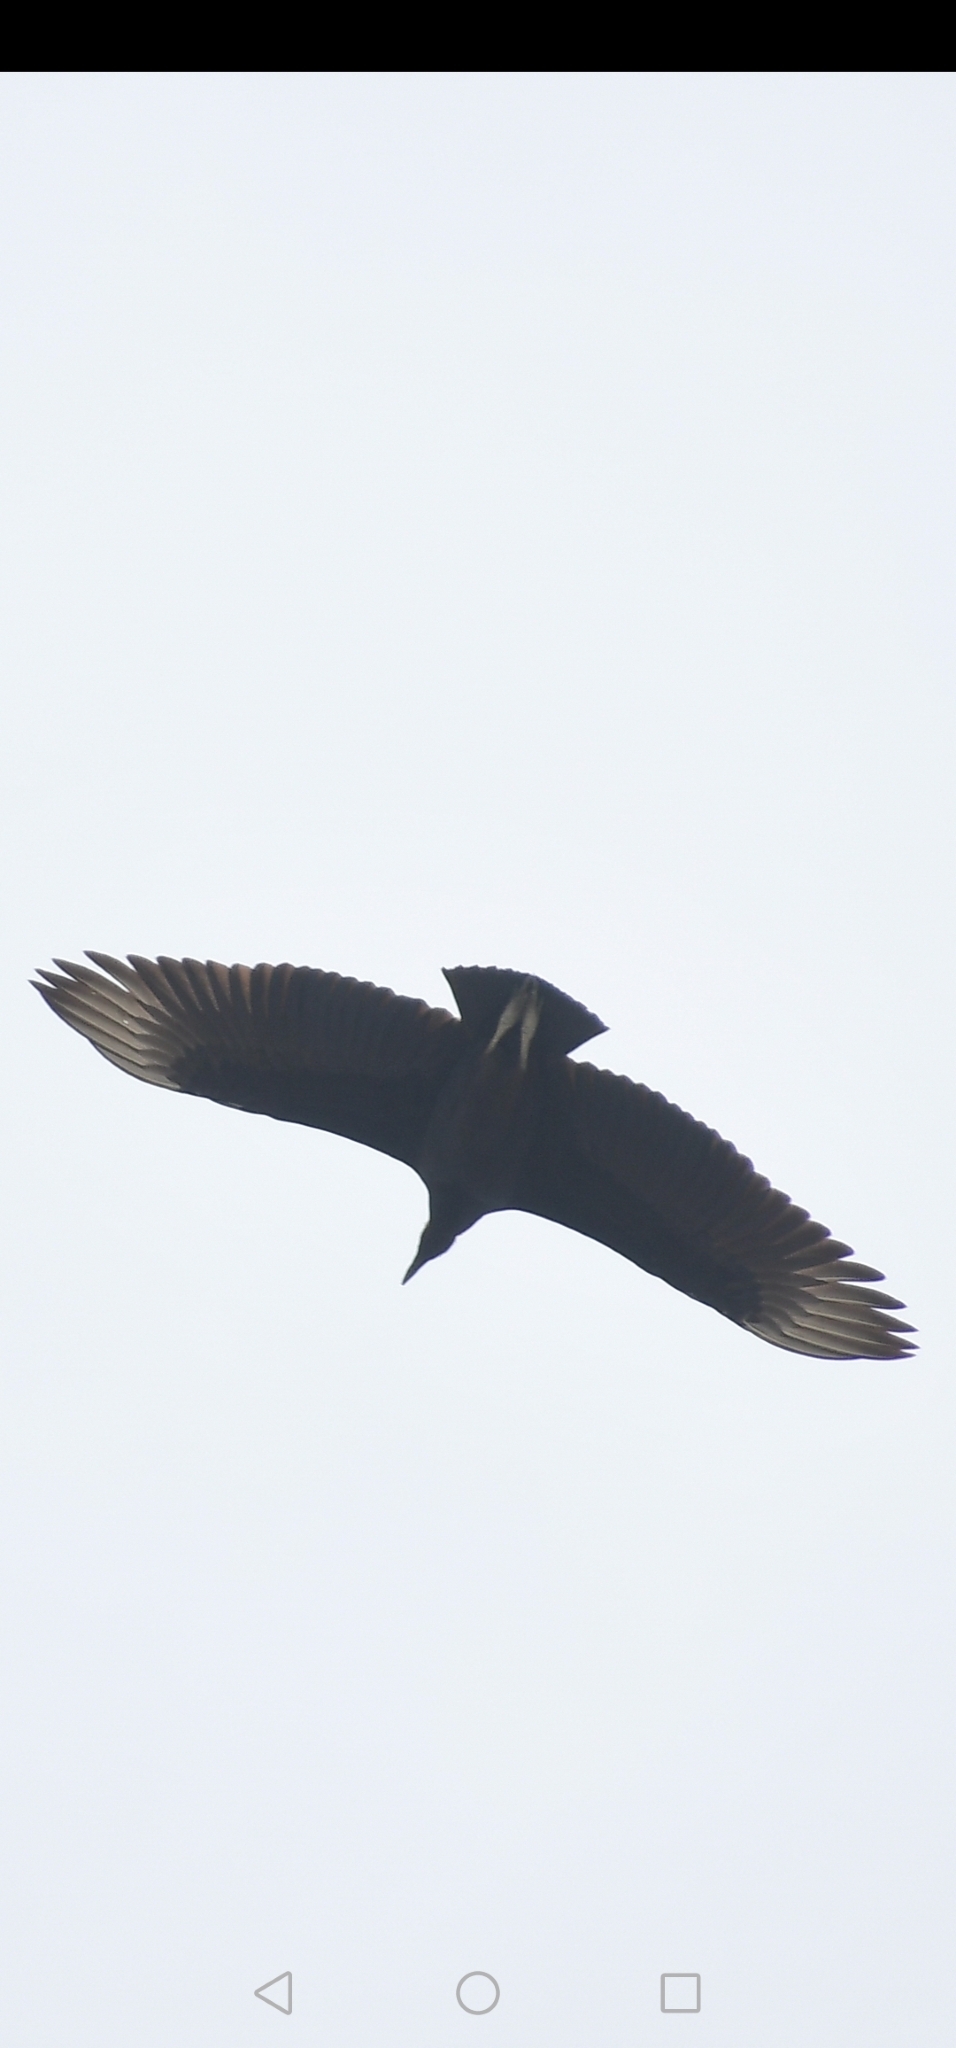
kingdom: Animalia
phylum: Chordata
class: Aves
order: Accipitriformes
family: Cathartidae
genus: Coragyps
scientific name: Coragyps atratus
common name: Black vulture
